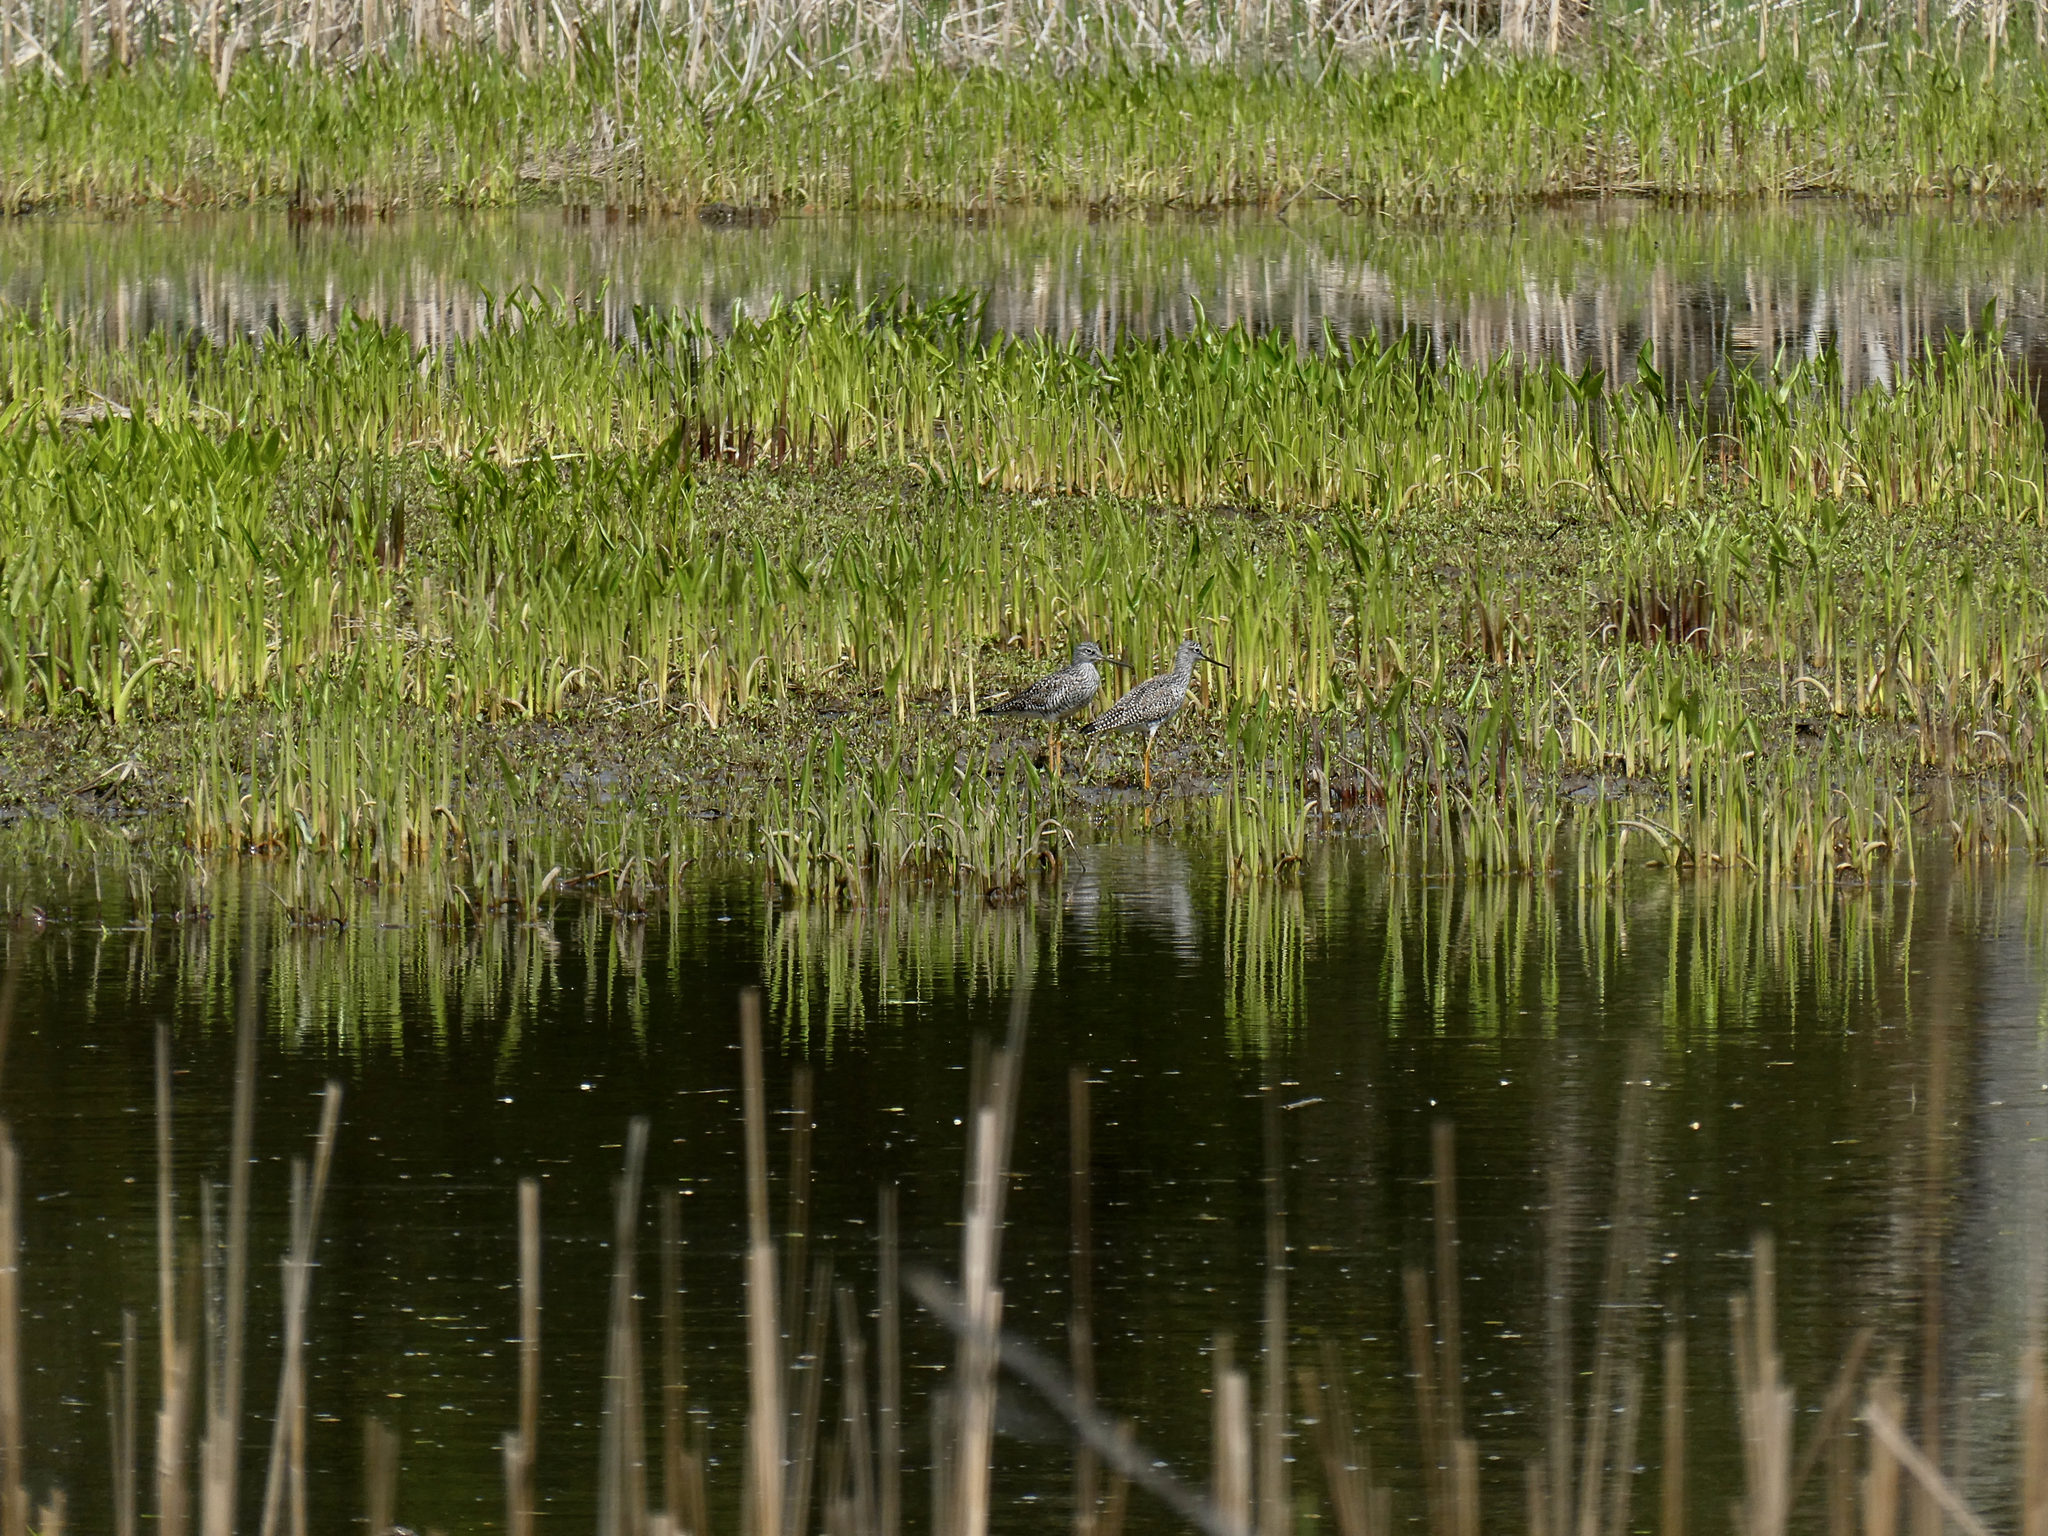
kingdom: Animalia
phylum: Chordata
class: Aves
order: Charadriiformes
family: Scolopacidae
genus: Tringa
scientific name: Tringa melanoleuca
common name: Greater yellowlegs
